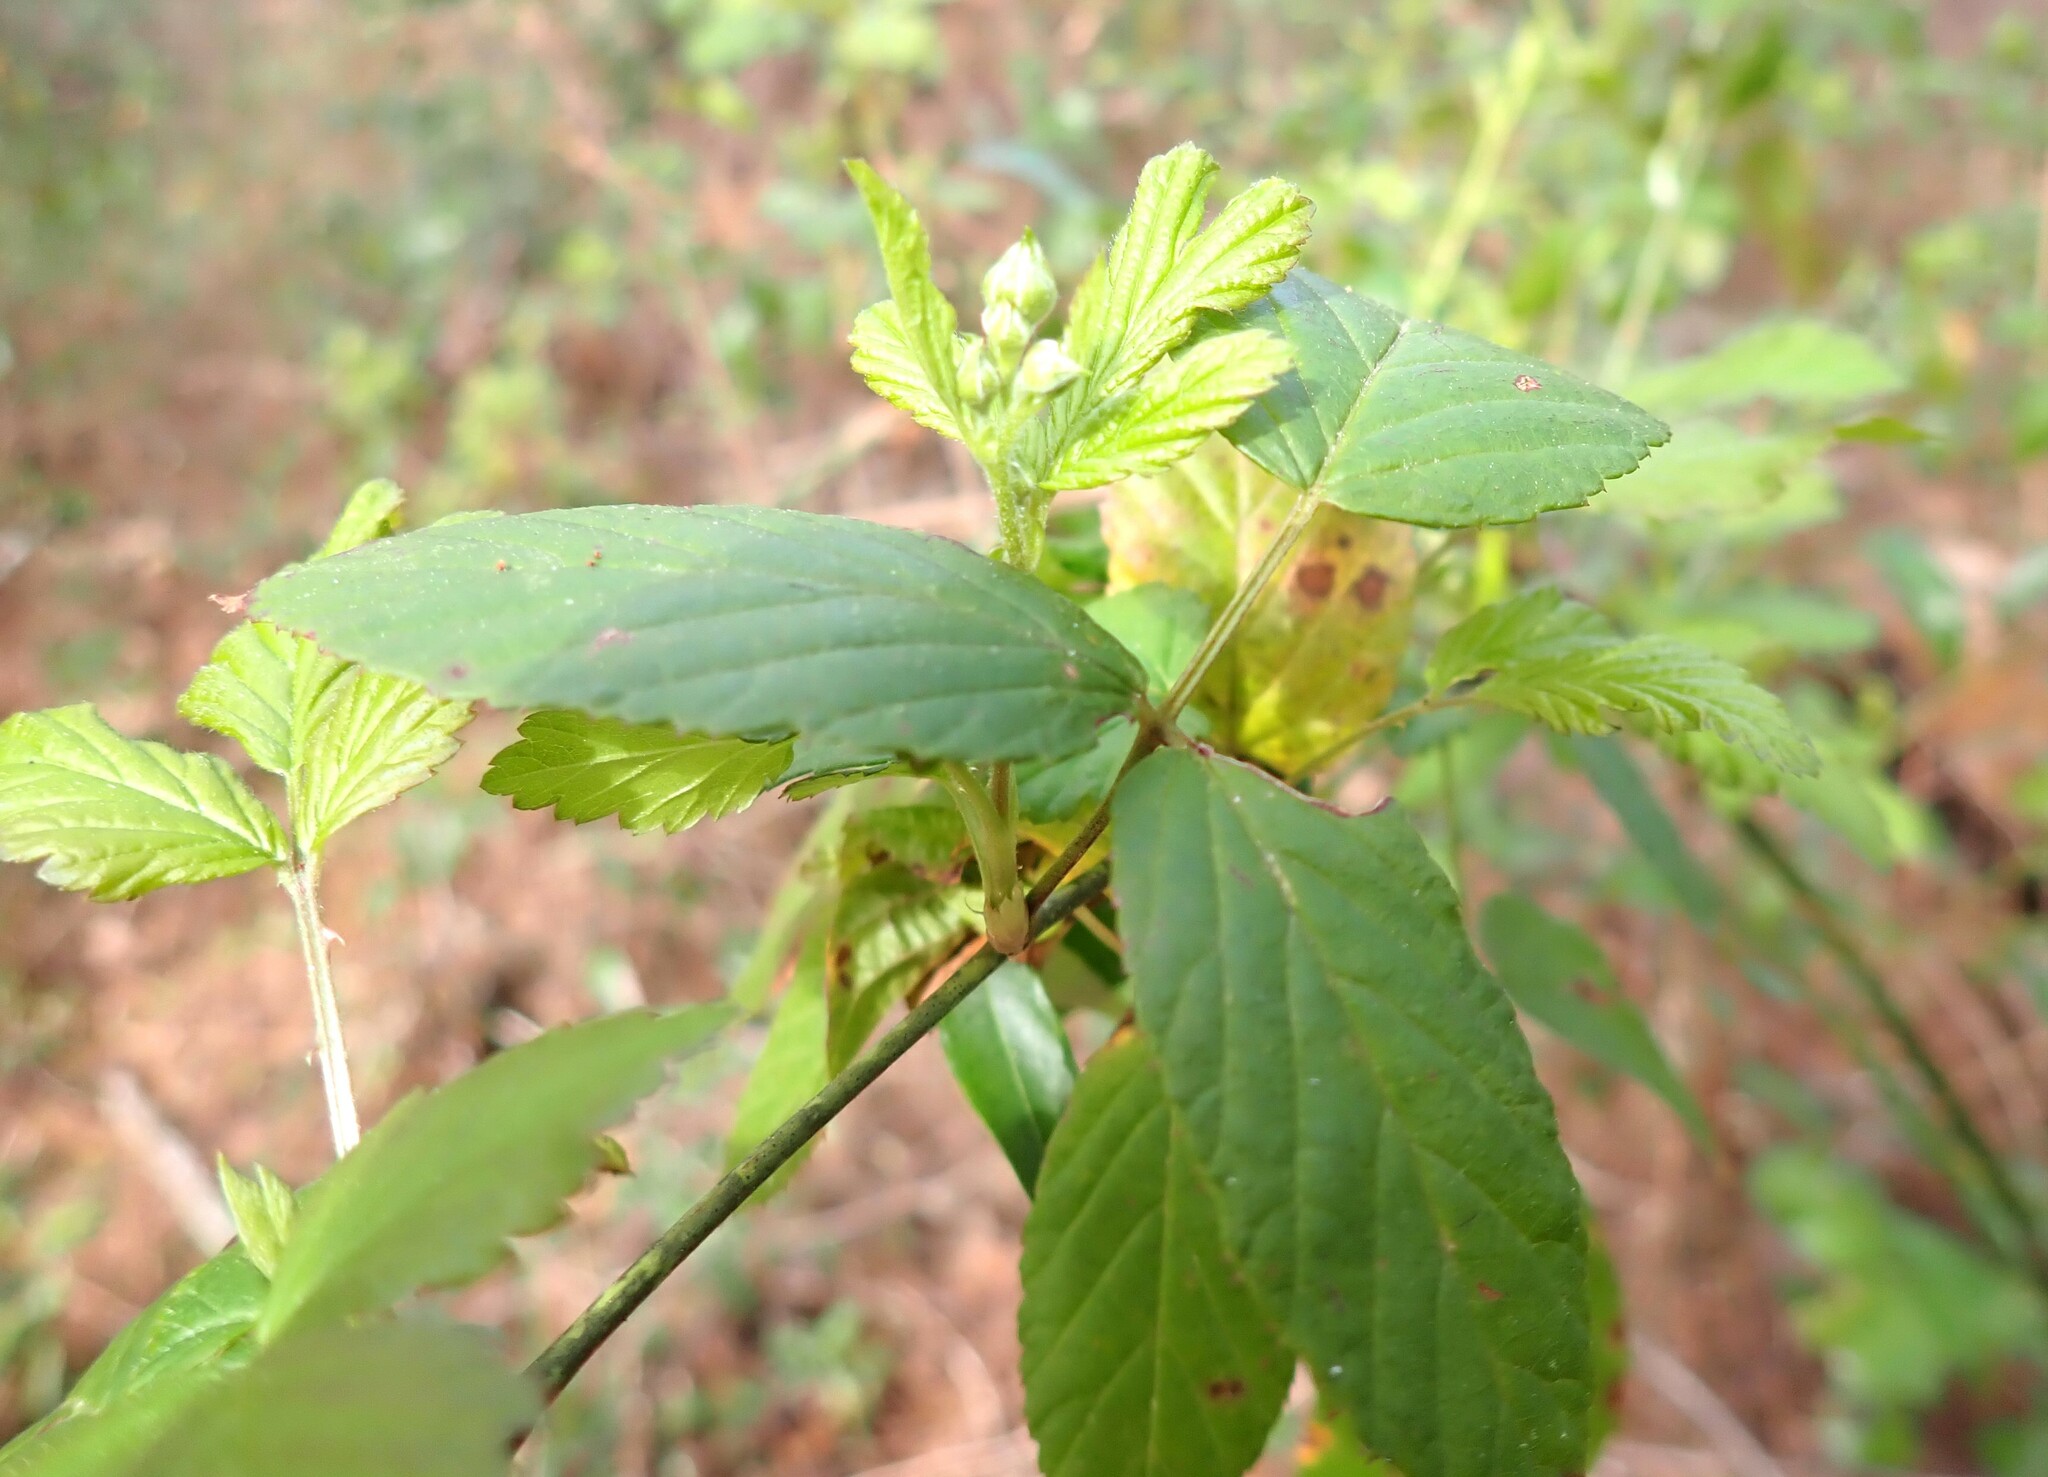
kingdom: Plantae
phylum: Tracheophyta
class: Magnoliopsida
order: Rosales
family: Rosaceae
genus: Rubus
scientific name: Rubus pensilvanicus
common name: Pennsylvania blackberry
